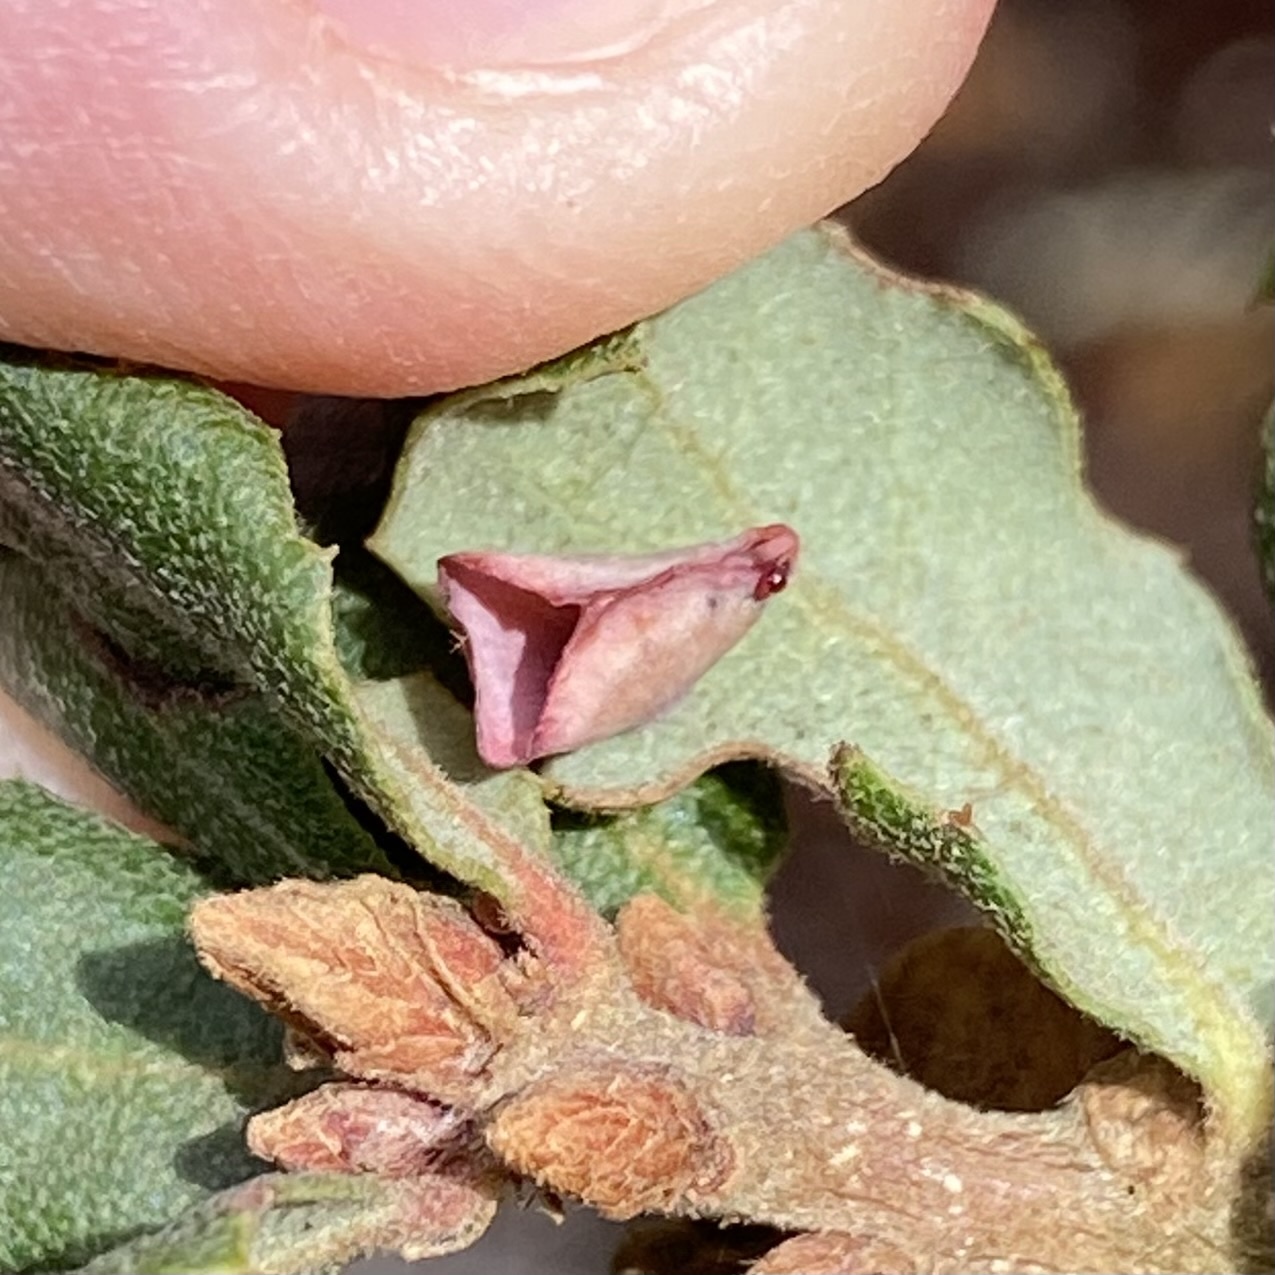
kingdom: Animalia
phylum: Arthropoda
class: Insecta
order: Hymenoptera
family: Cynipidae
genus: Andricus
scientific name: Andricus
